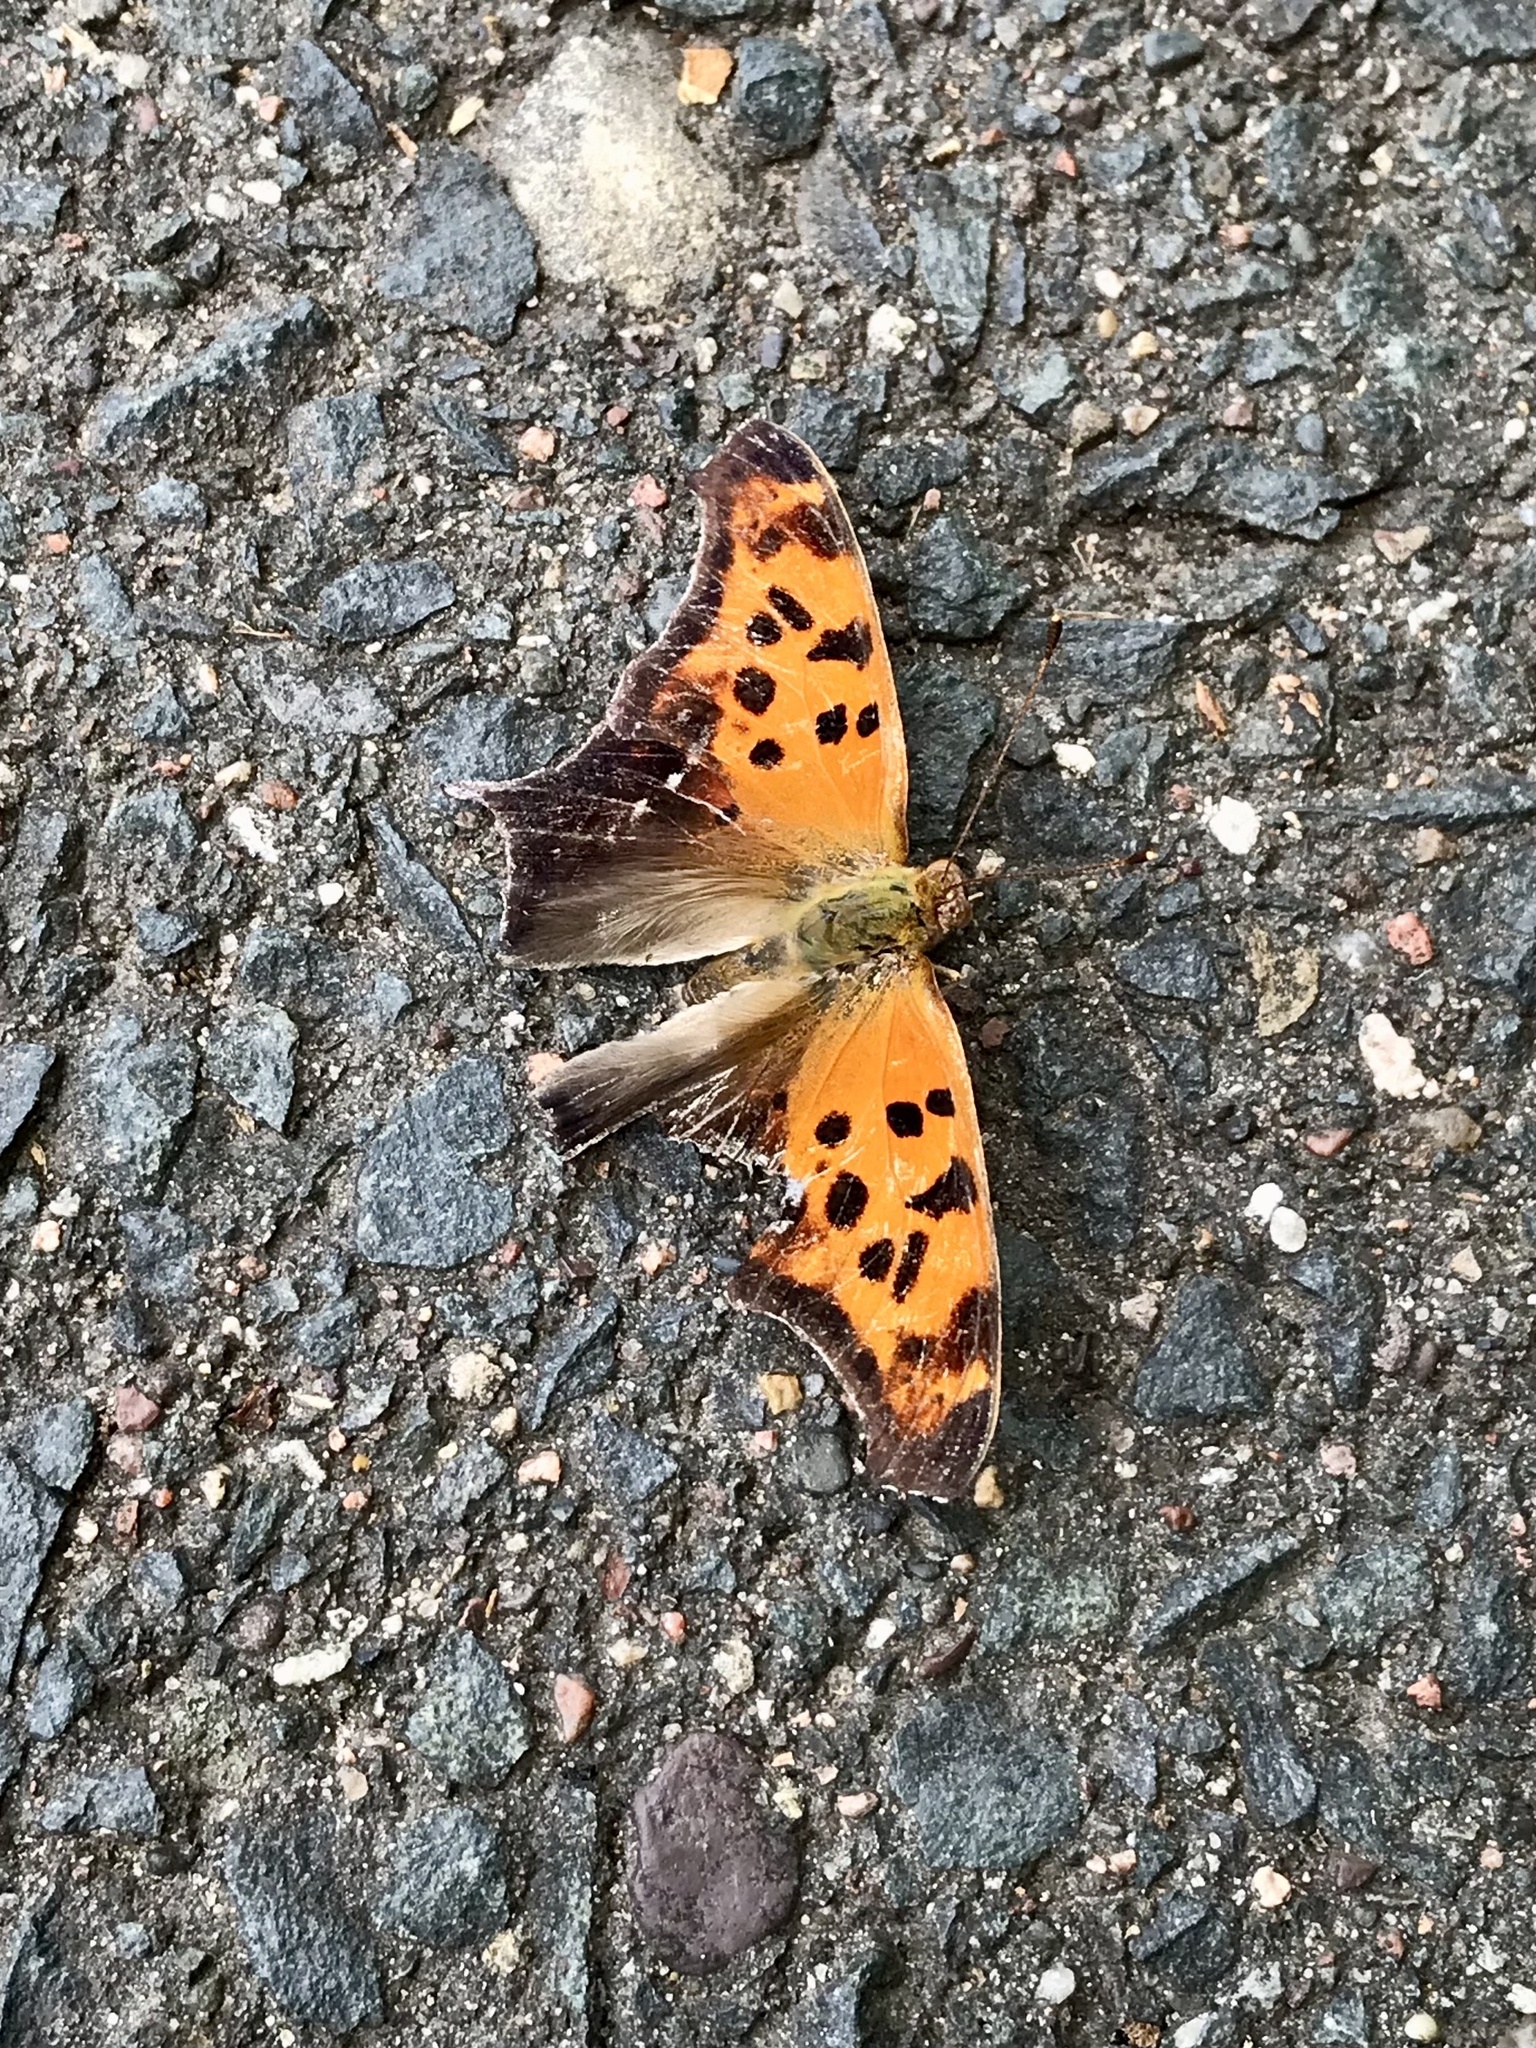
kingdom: Animalia
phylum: Arthropoda
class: Insecta
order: Lepidoptera
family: Nymphalidae
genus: Polygonia
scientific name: Polygonia interrogationis
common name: Question mark
